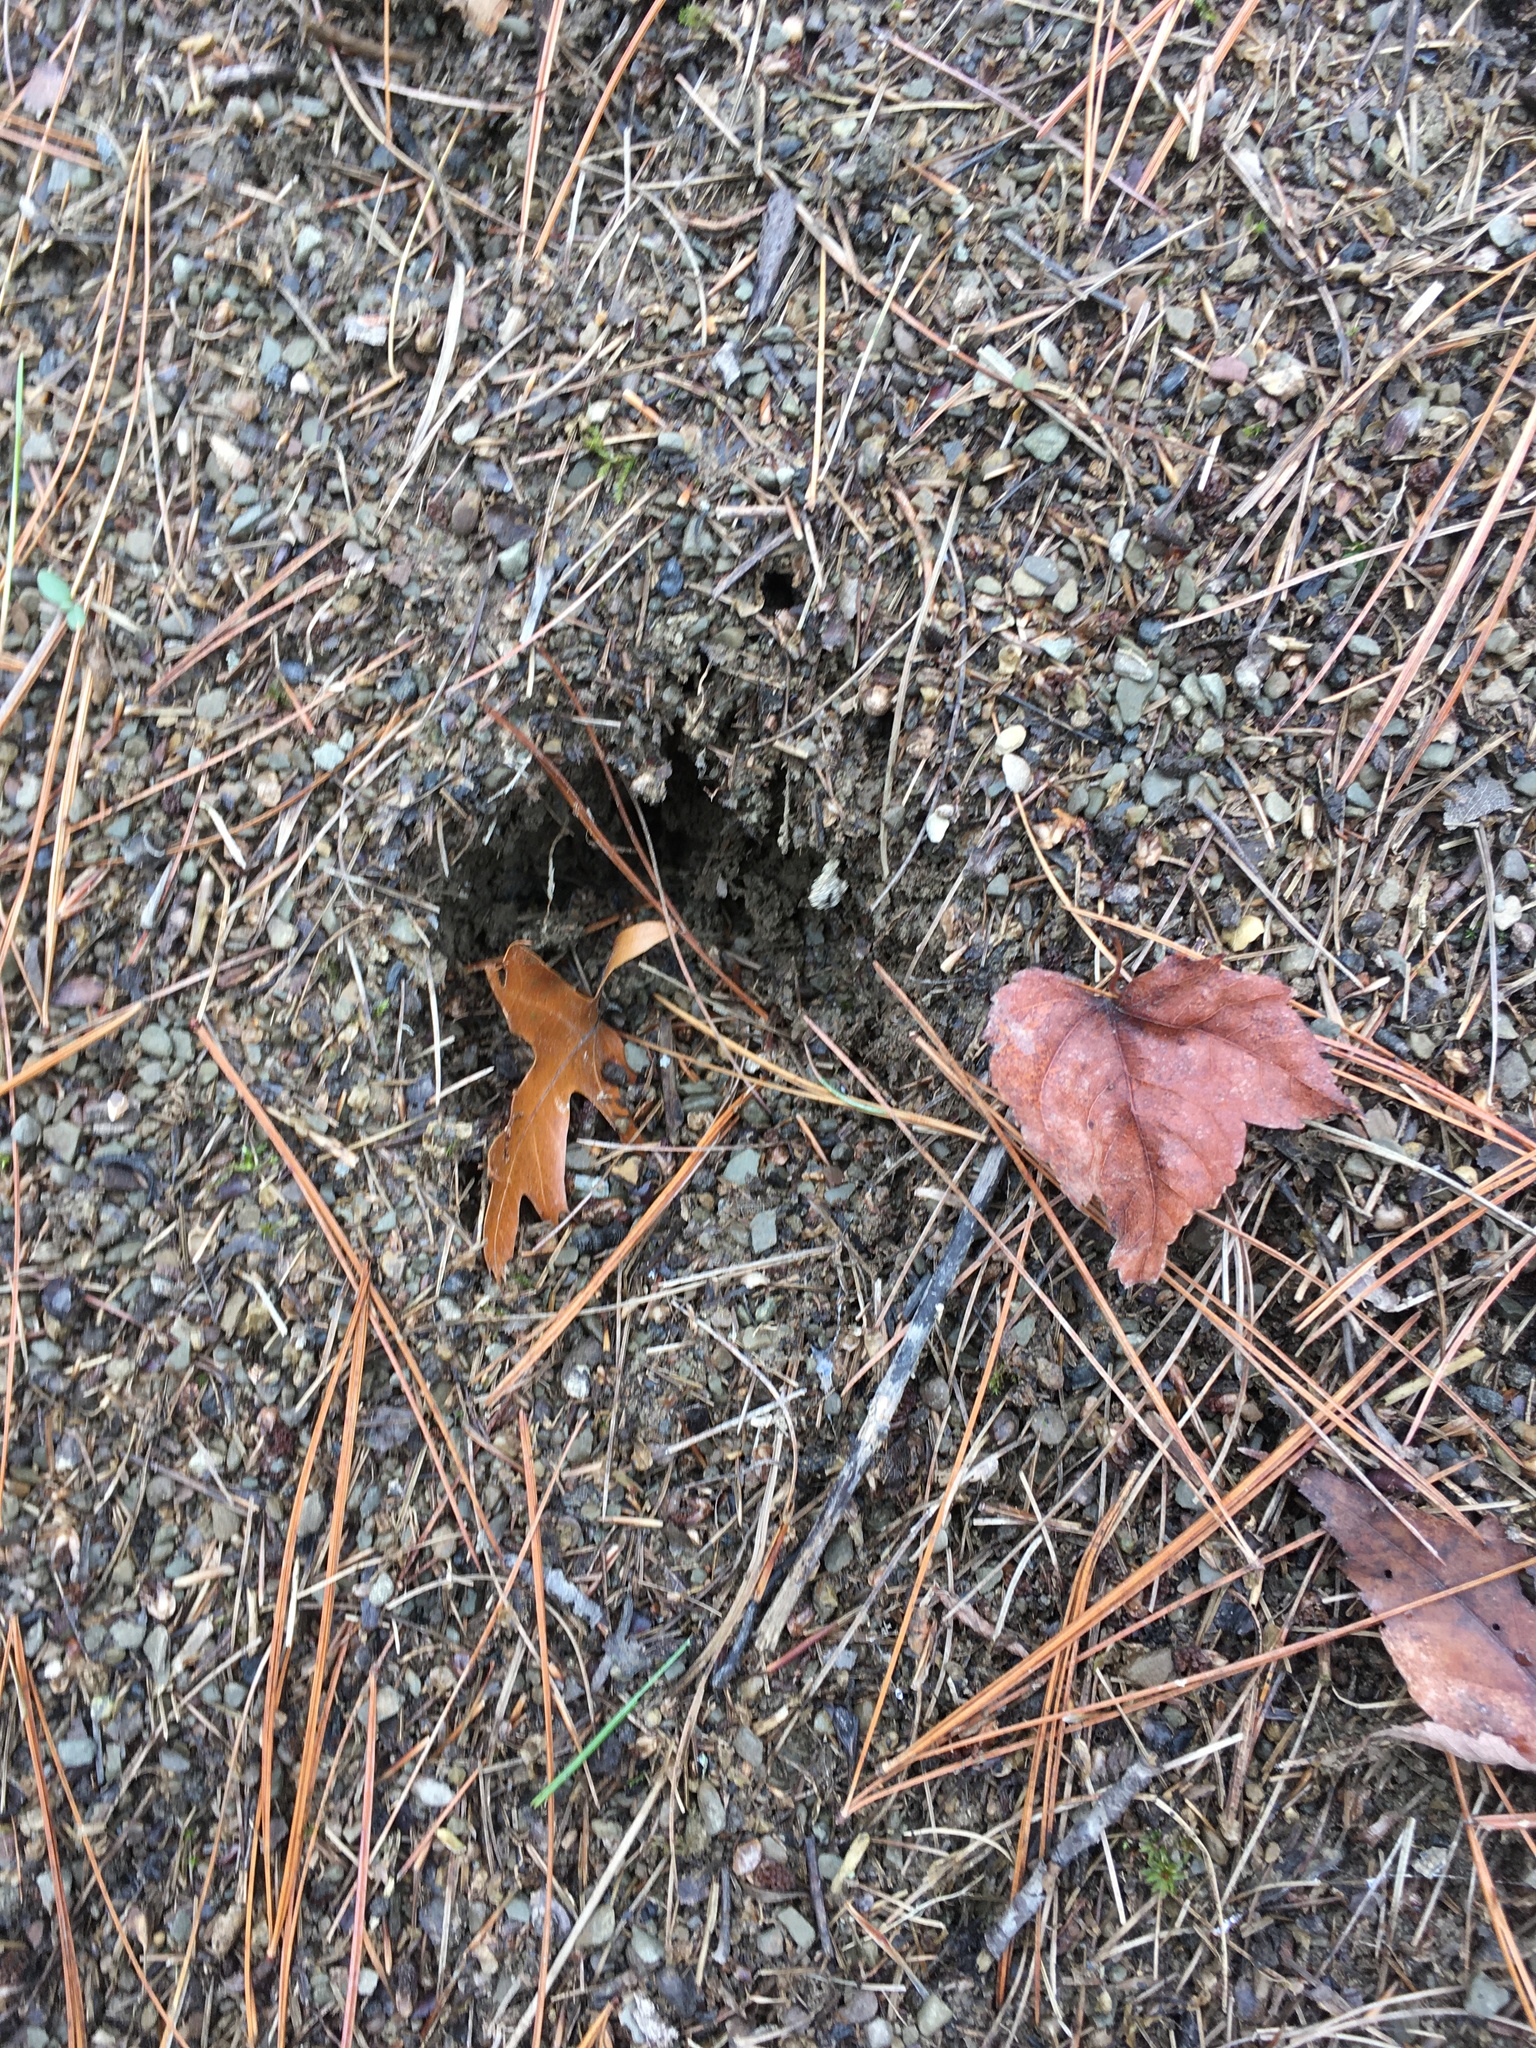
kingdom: Animalia
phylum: Arthropoda
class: Insecta
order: Hymenoptera
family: Formicidae
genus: Formica
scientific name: Formica exsectoides
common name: Allegheny mound ant
